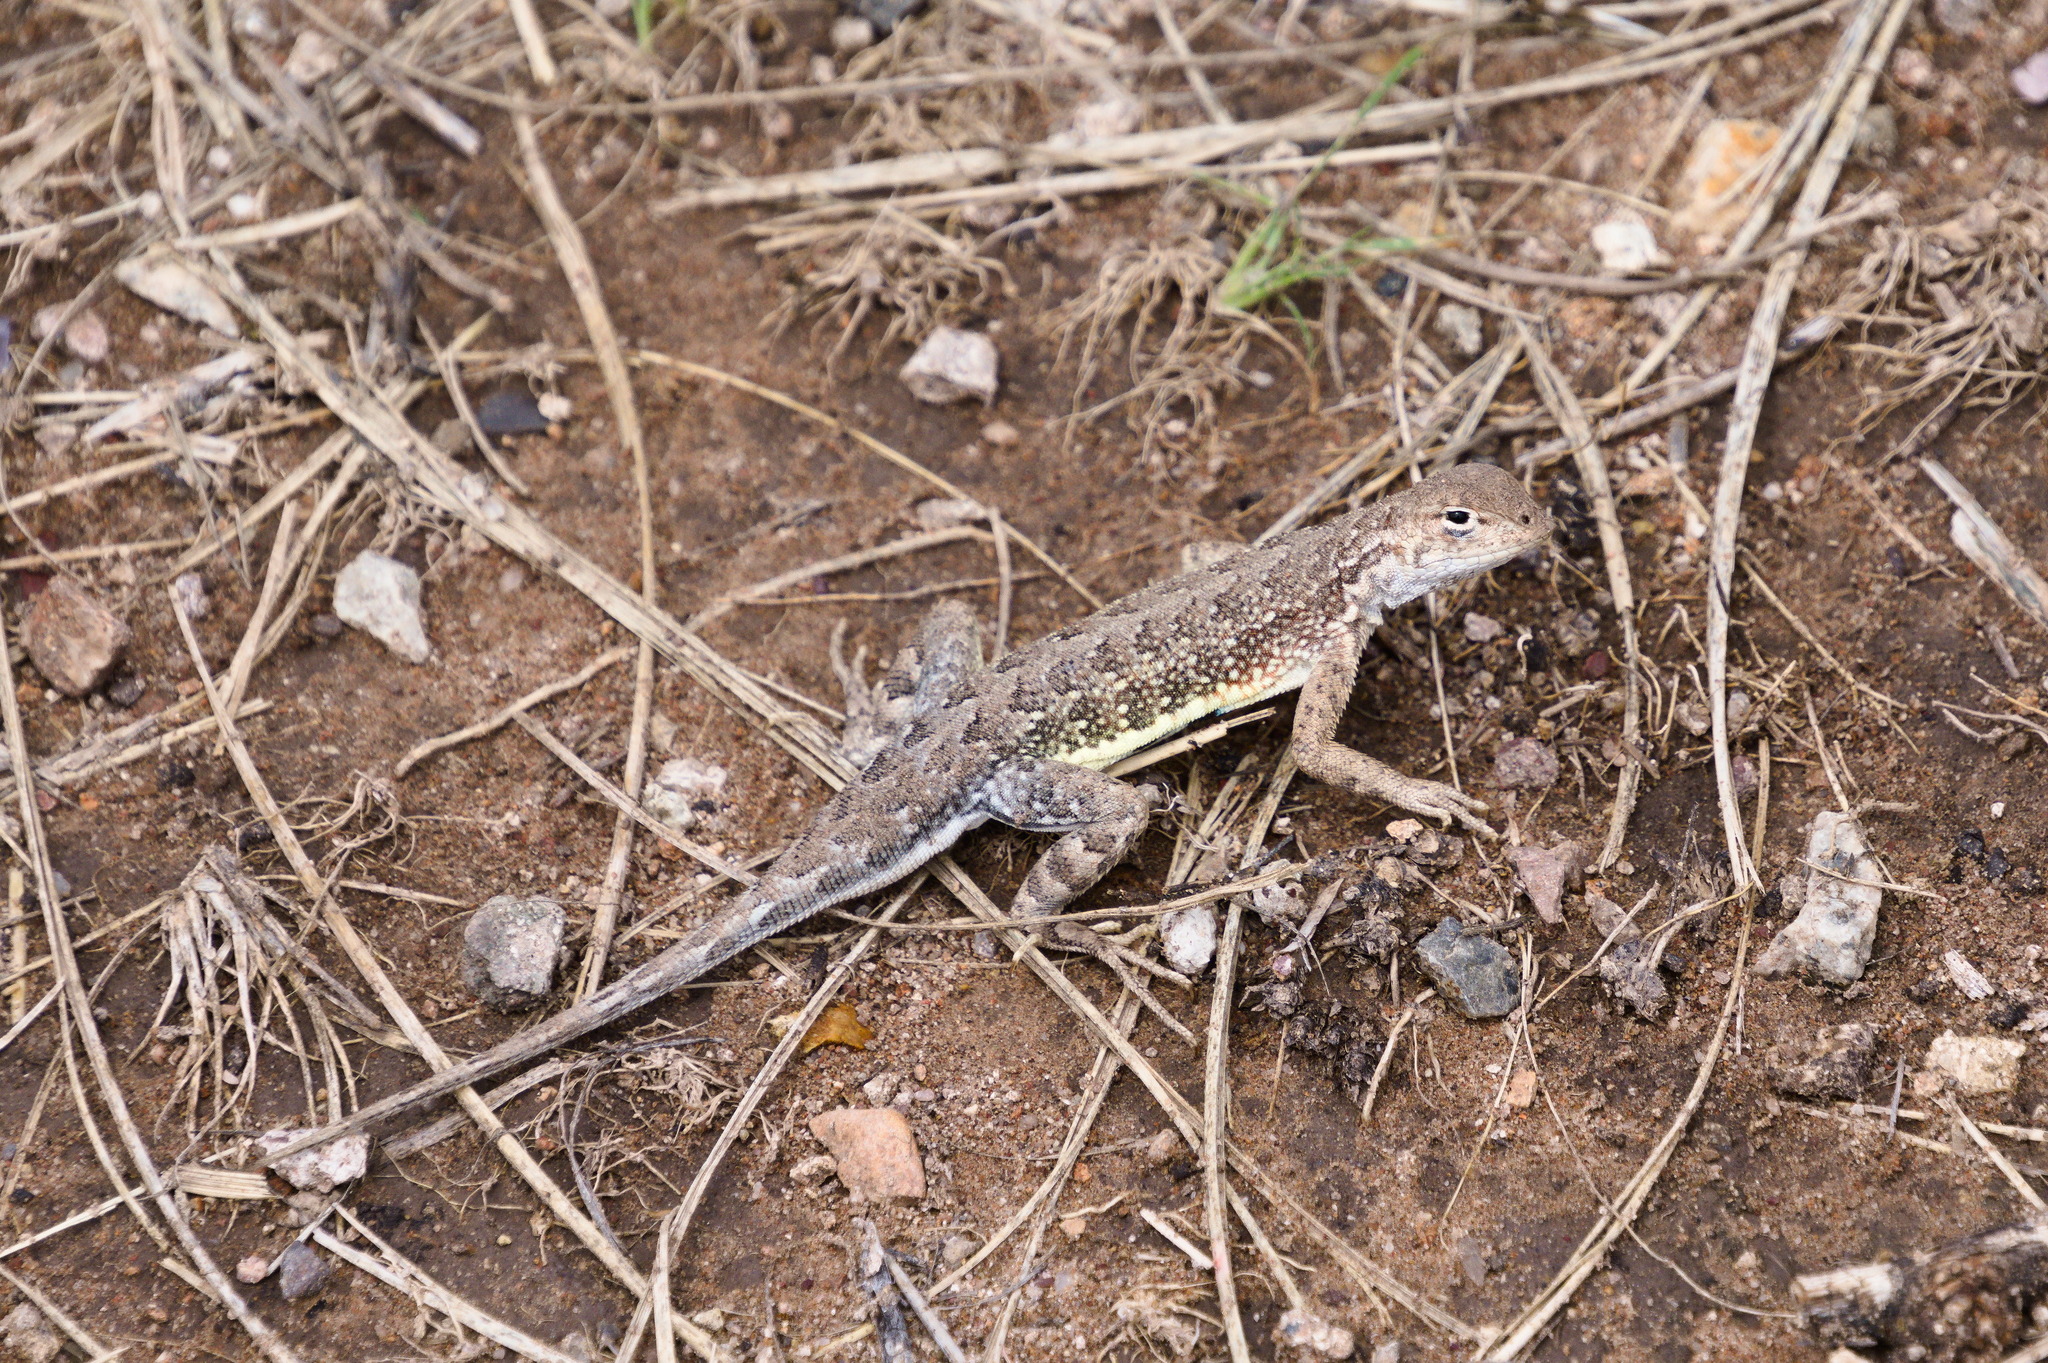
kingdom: Animalia
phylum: Chordata
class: Squamata
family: Phrynosomatidae
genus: Holbrookia
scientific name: Holbrookia elegans
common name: Elegant earless lizard
